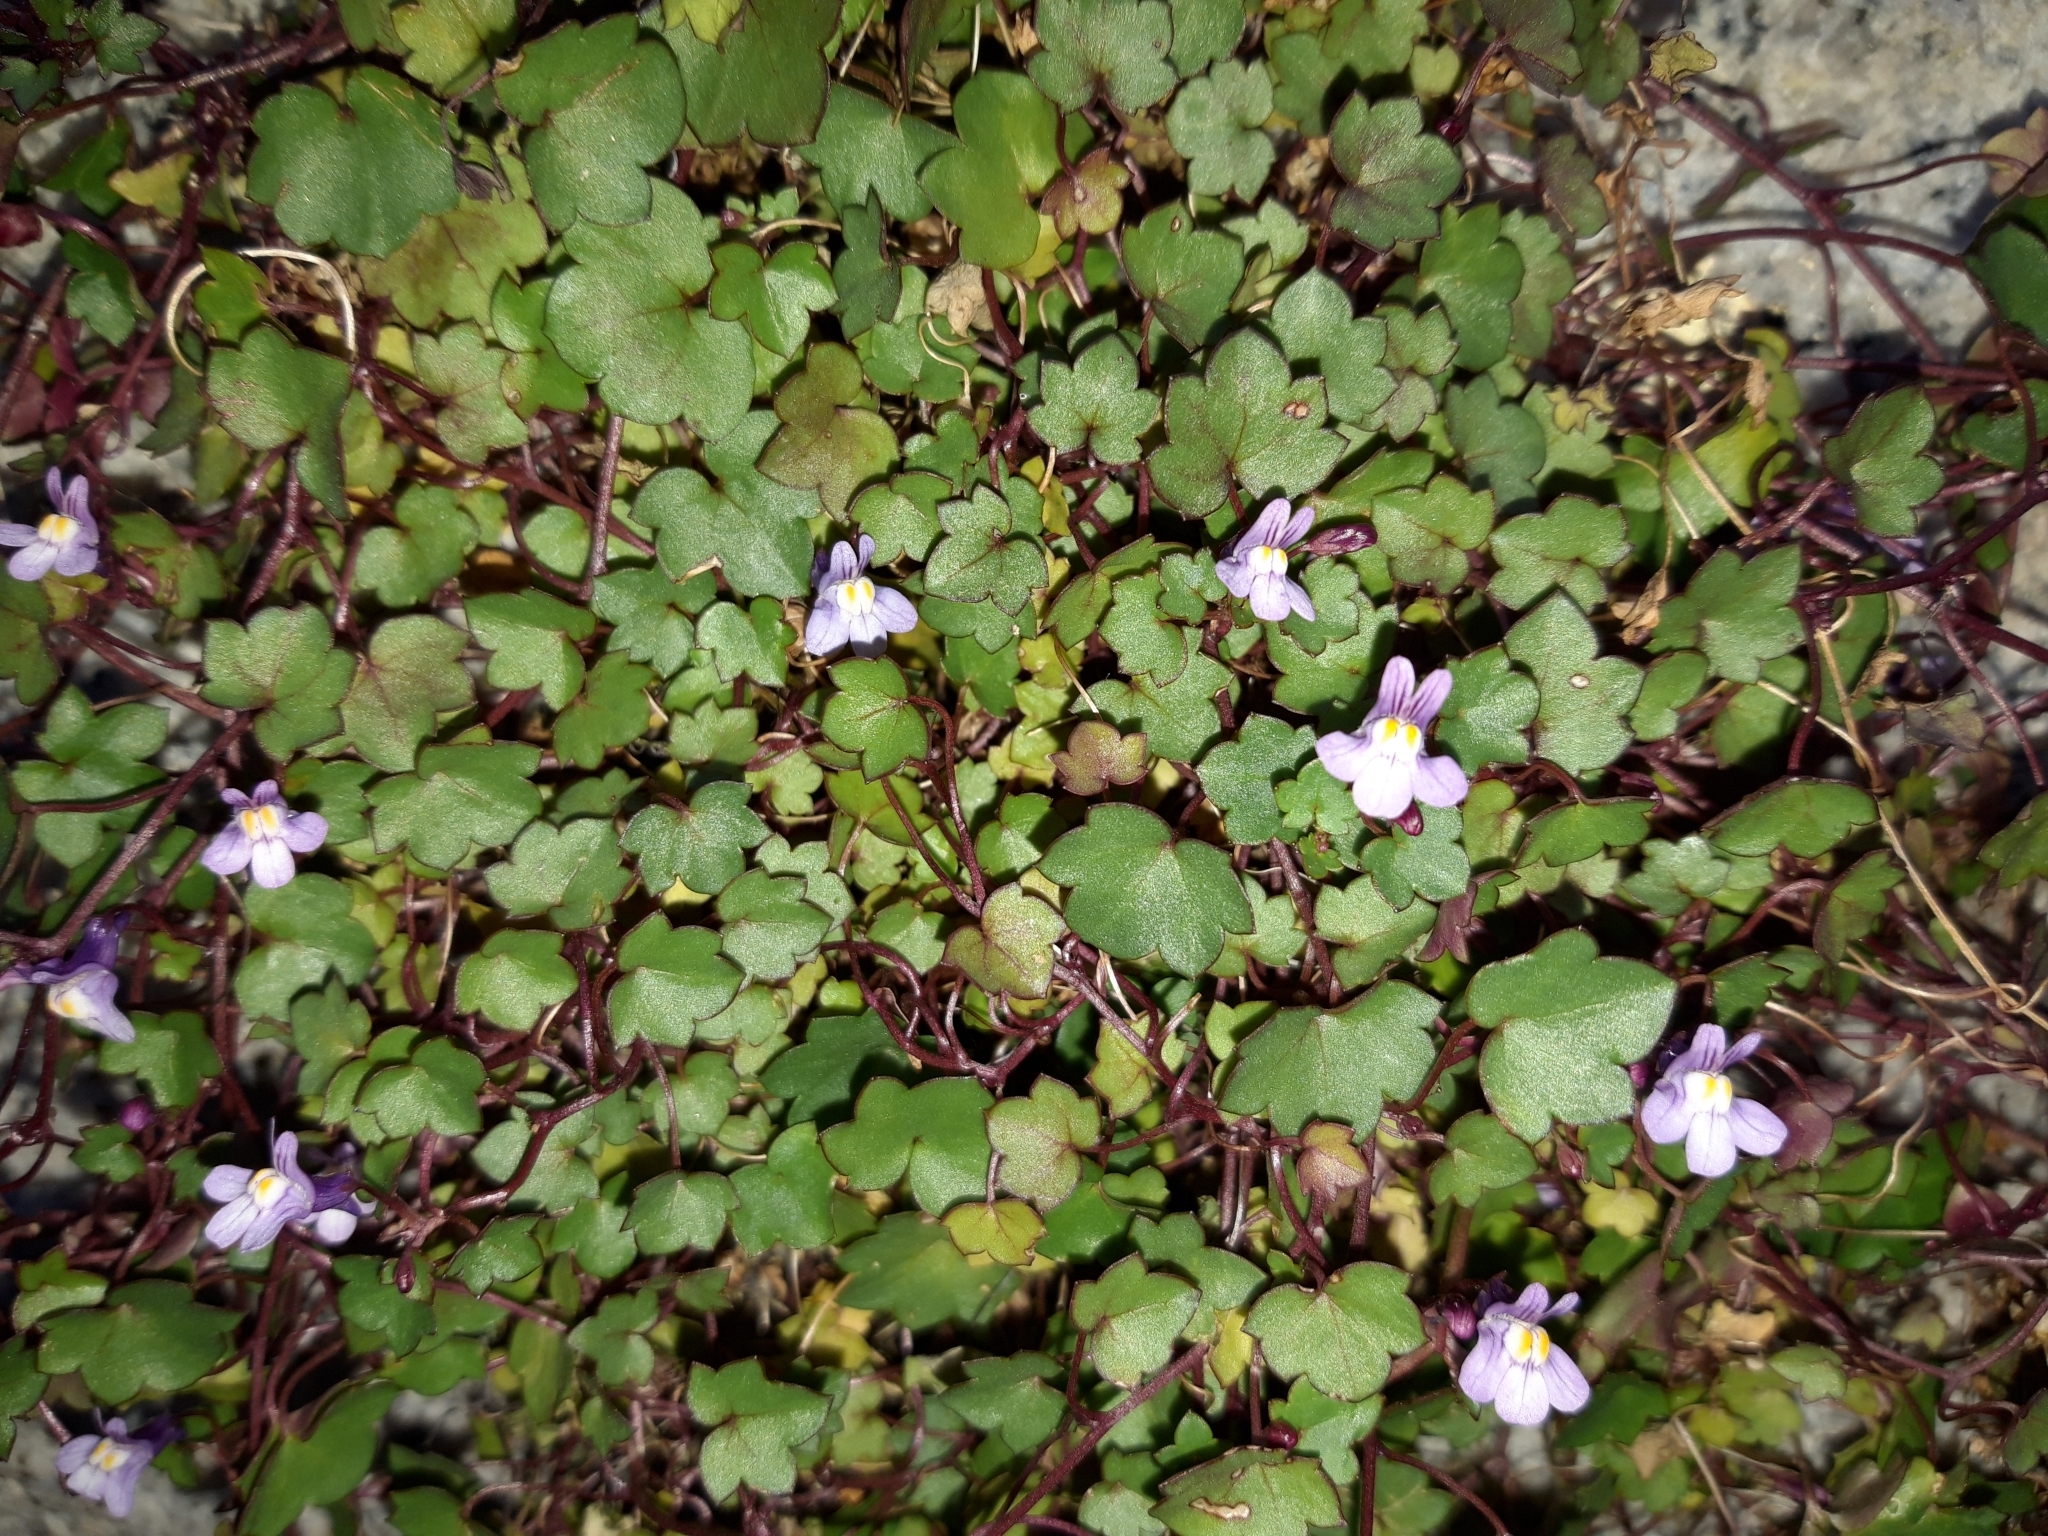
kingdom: Plantae
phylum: Tracheophyta
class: Magnoliopsida
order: Lamiales
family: Plantaginaceae
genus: Cymbalaria
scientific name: Cymbalaria muralis
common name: Ivy-leaved toadflax
